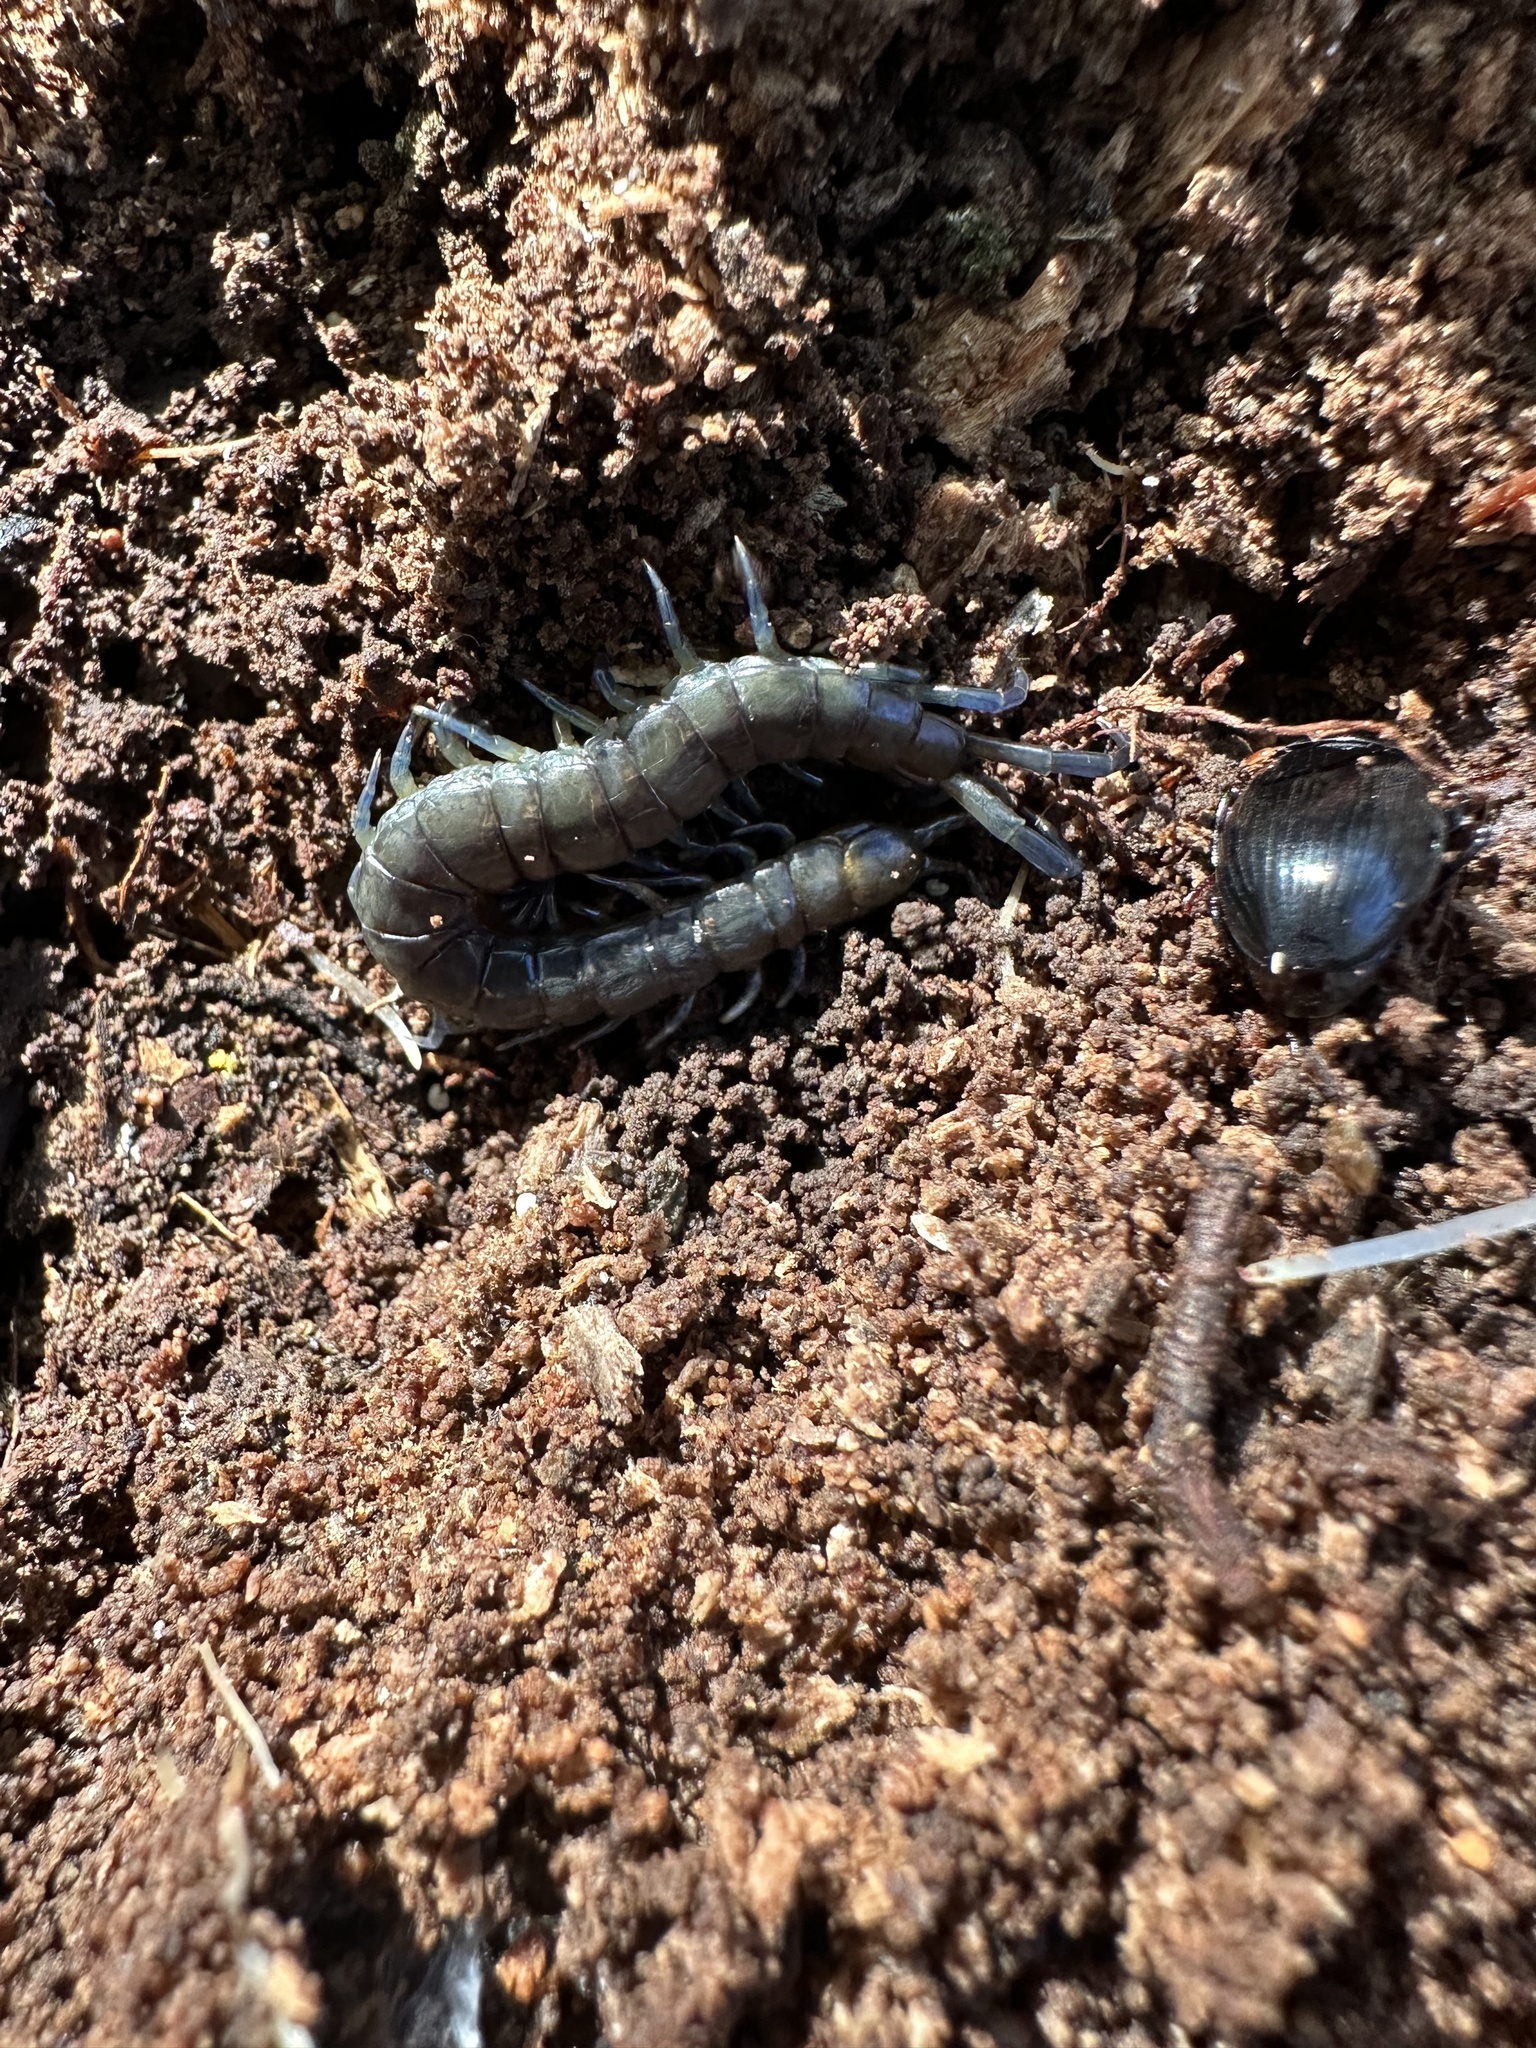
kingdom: Animalia
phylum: Arthropoda
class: Chilopoda
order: Scolopendromorpha
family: Scolopendridae
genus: Hemiscolopendra
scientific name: Hemiscolopendra chilensis
